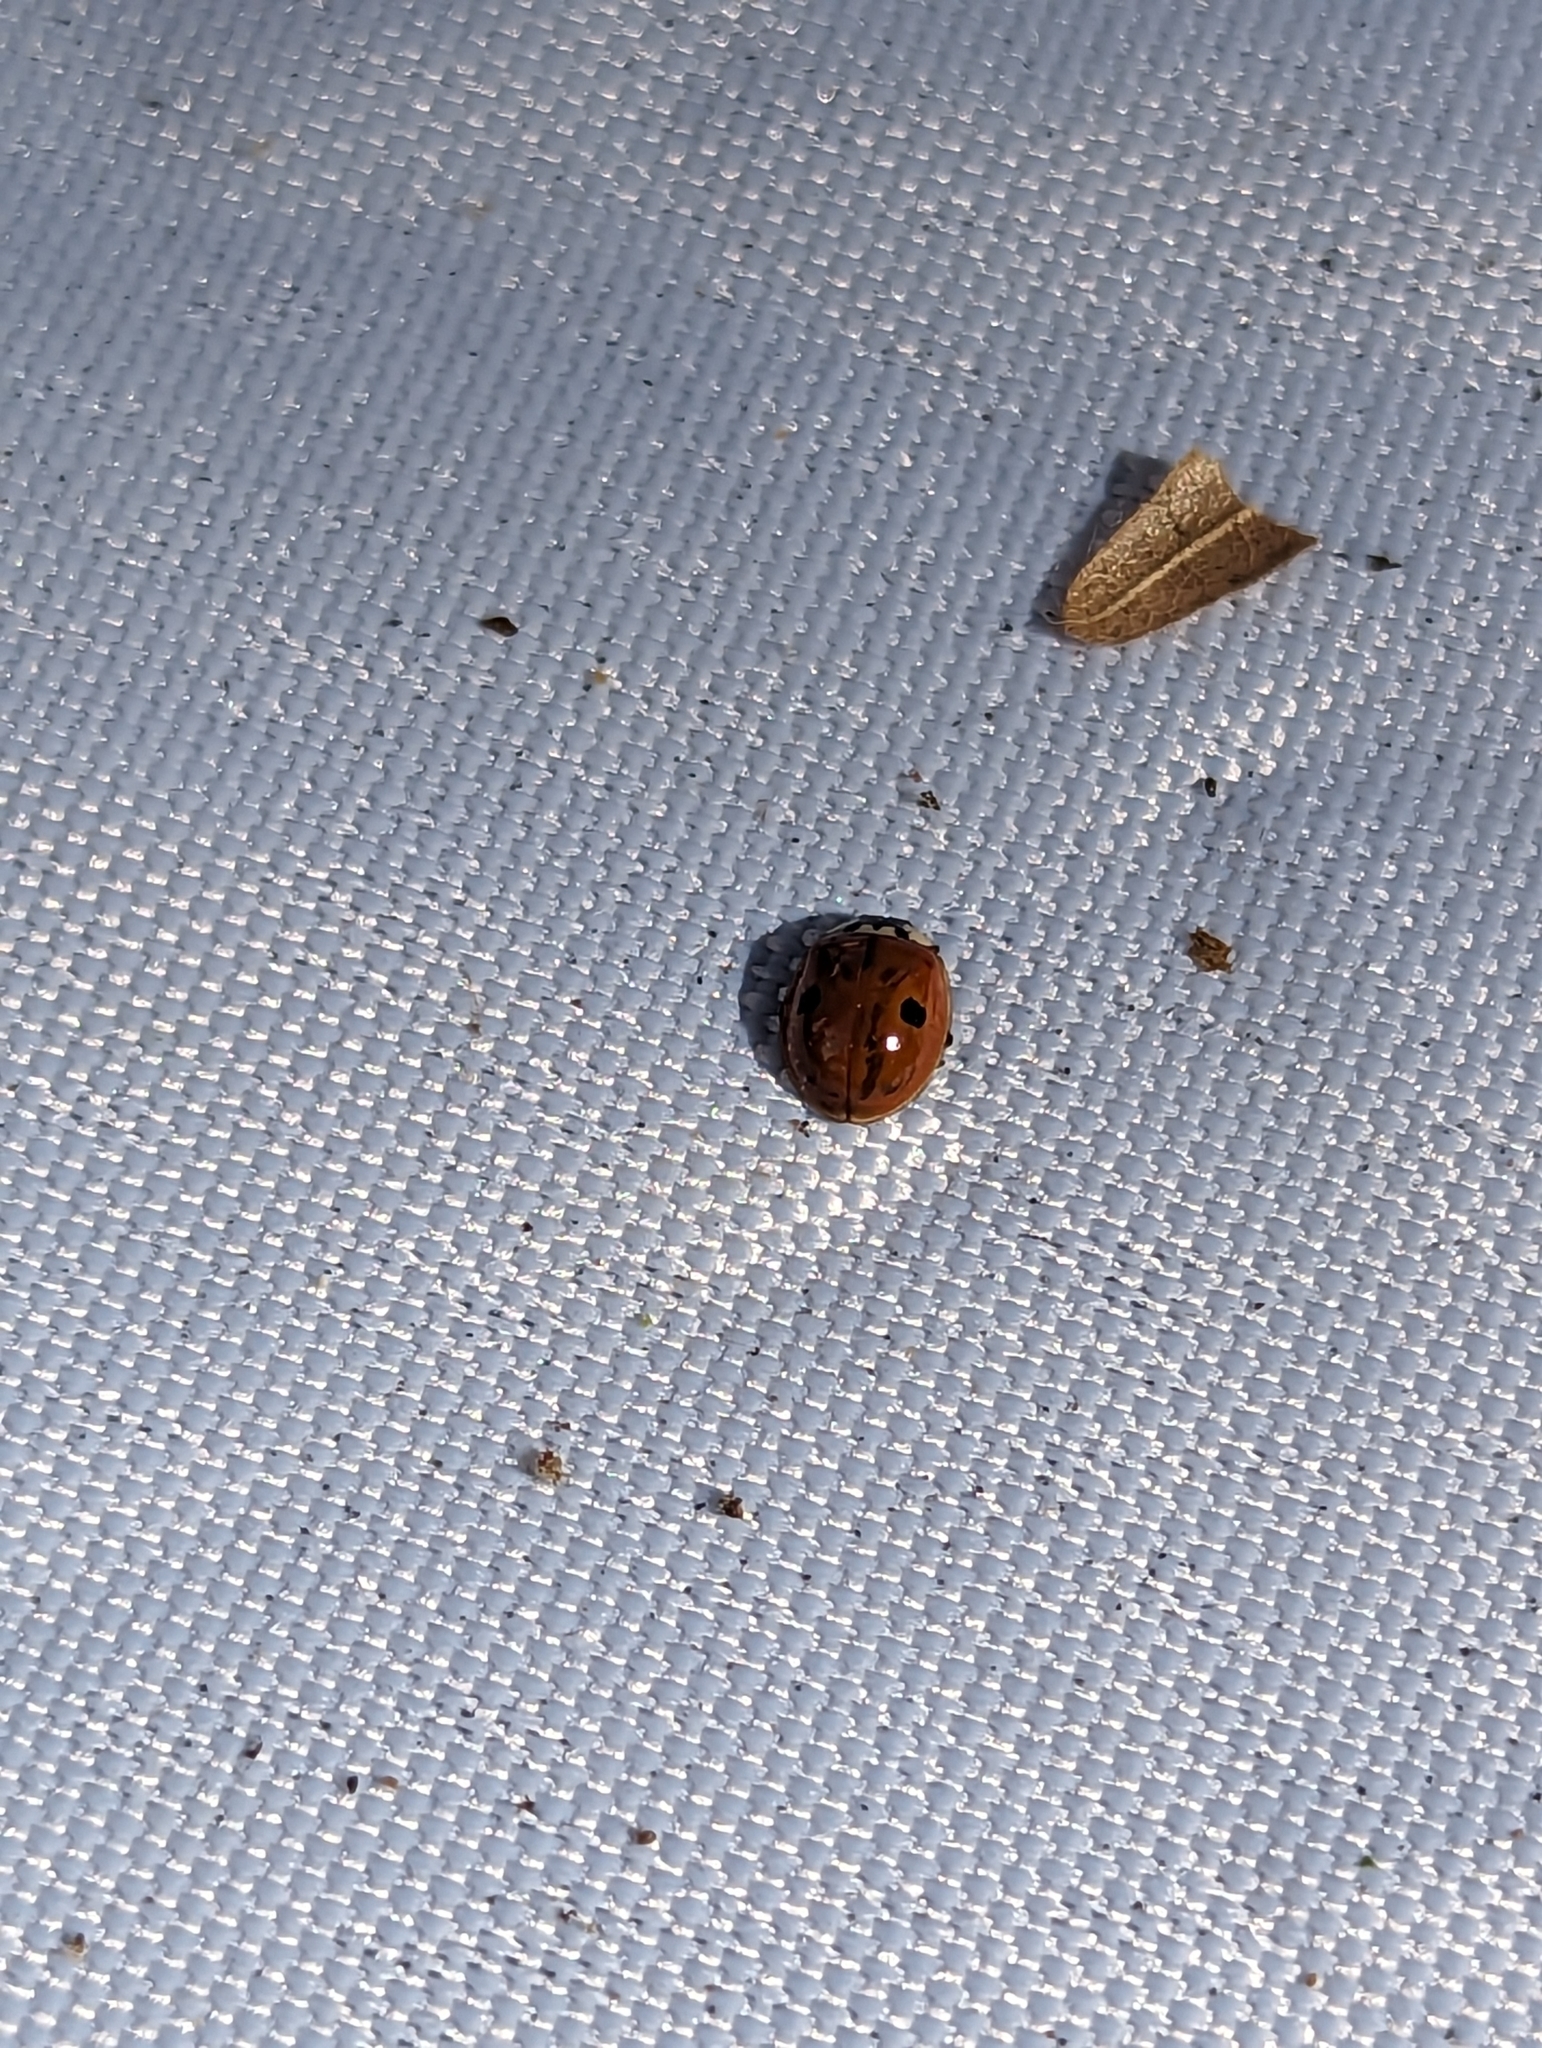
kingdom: Animalia
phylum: Arthropoda
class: Insecta
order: Coleoptera
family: Coccinellidae
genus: Adalia
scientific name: Adalia bipunctata
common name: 2-spot ladybird
